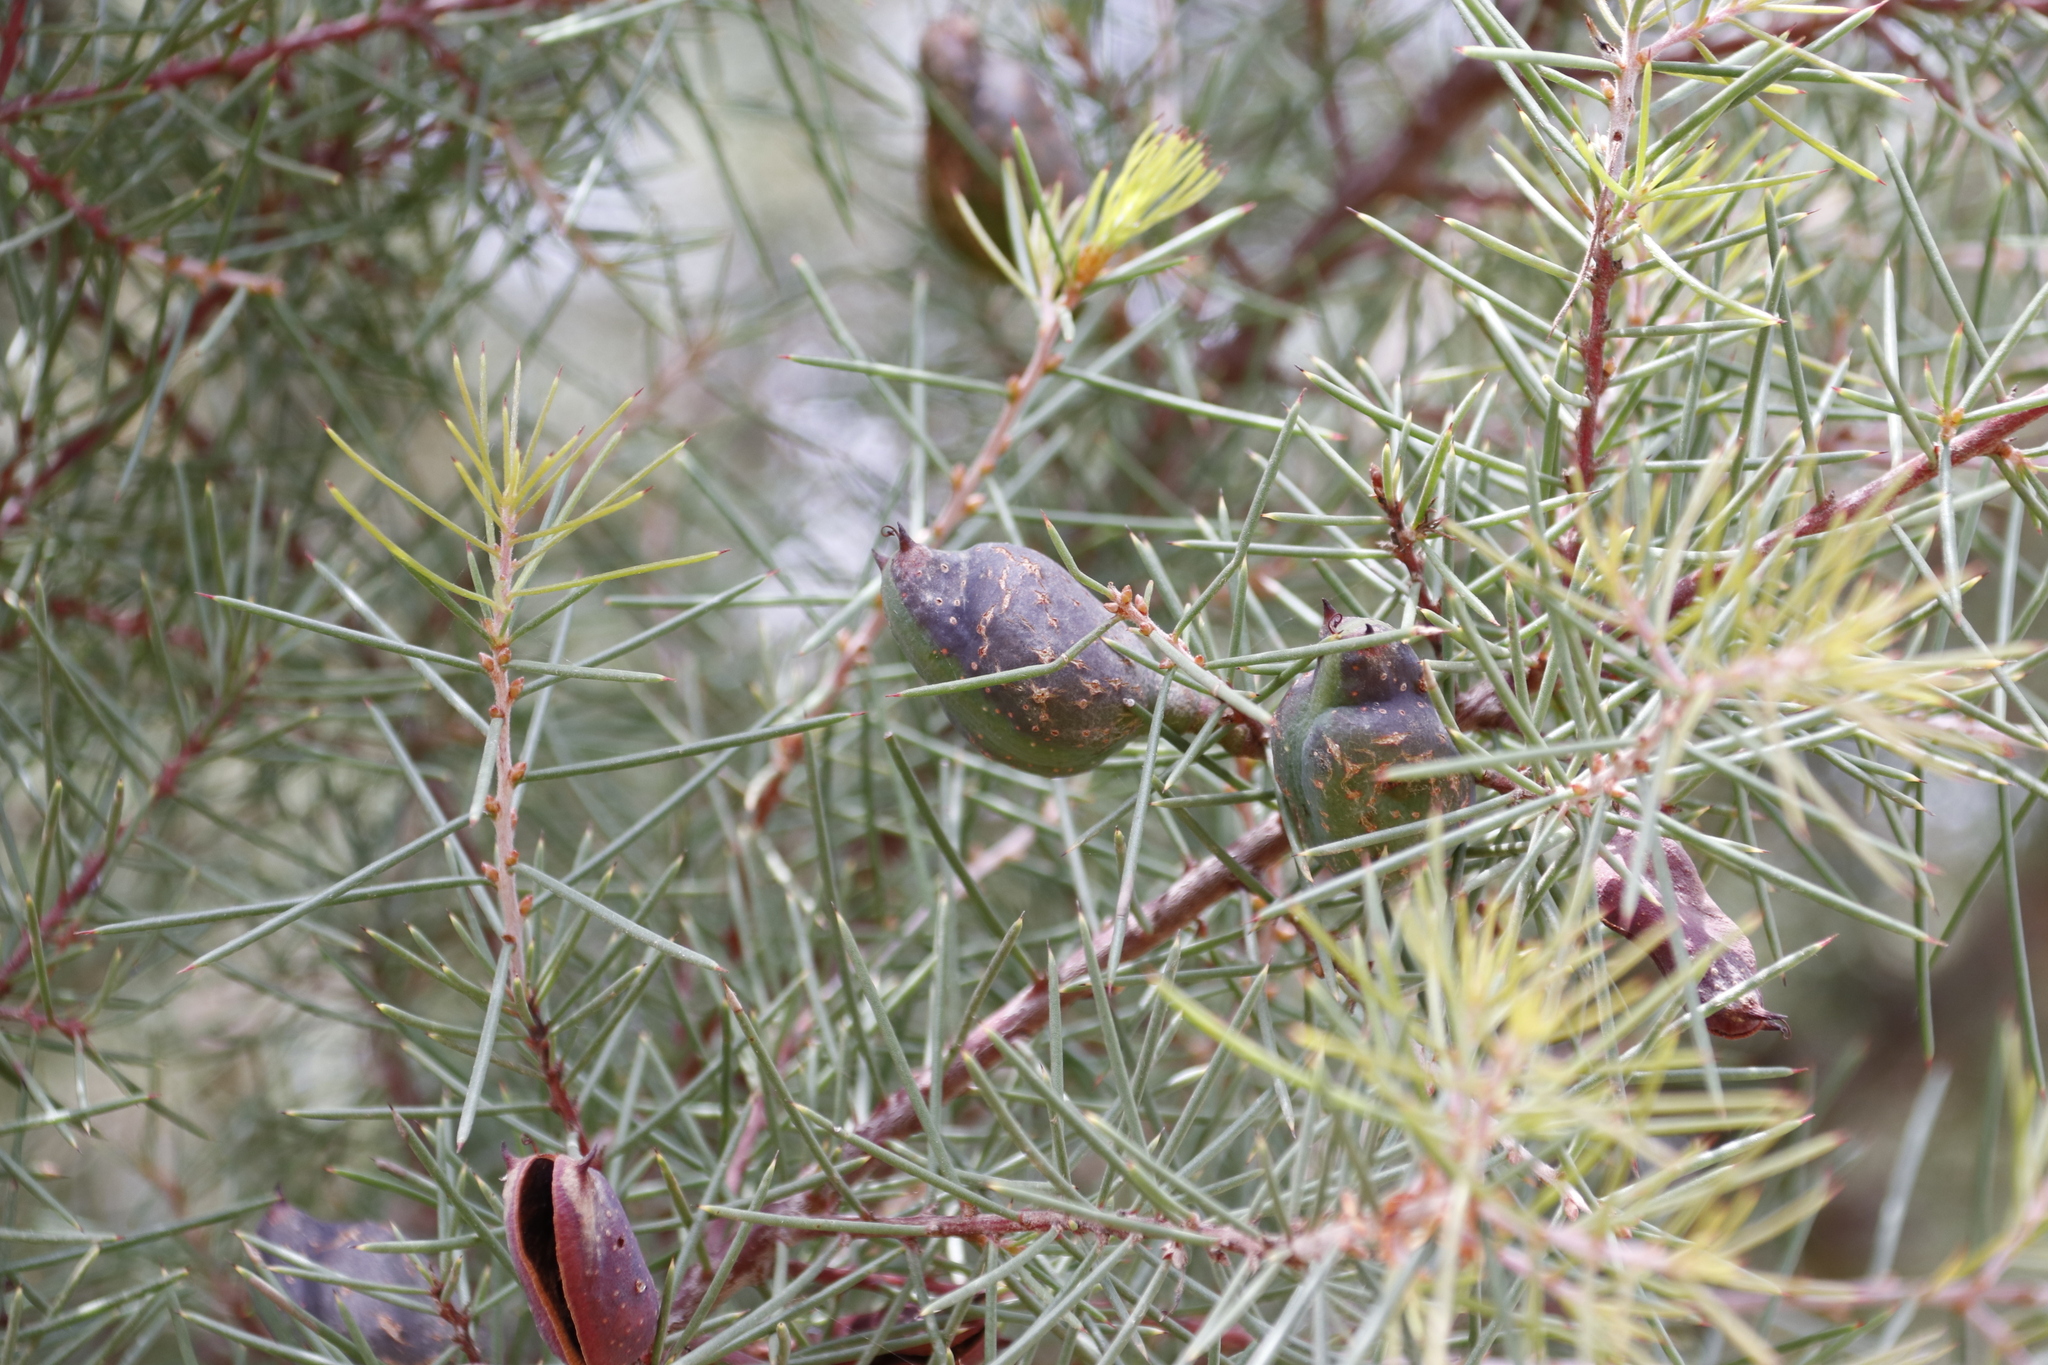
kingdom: Plantae
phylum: Tracheophyta
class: Magnoliopsida
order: Proteales
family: Proteaceae
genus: Hakea
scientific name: Hakea sericea
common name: Needle bush
